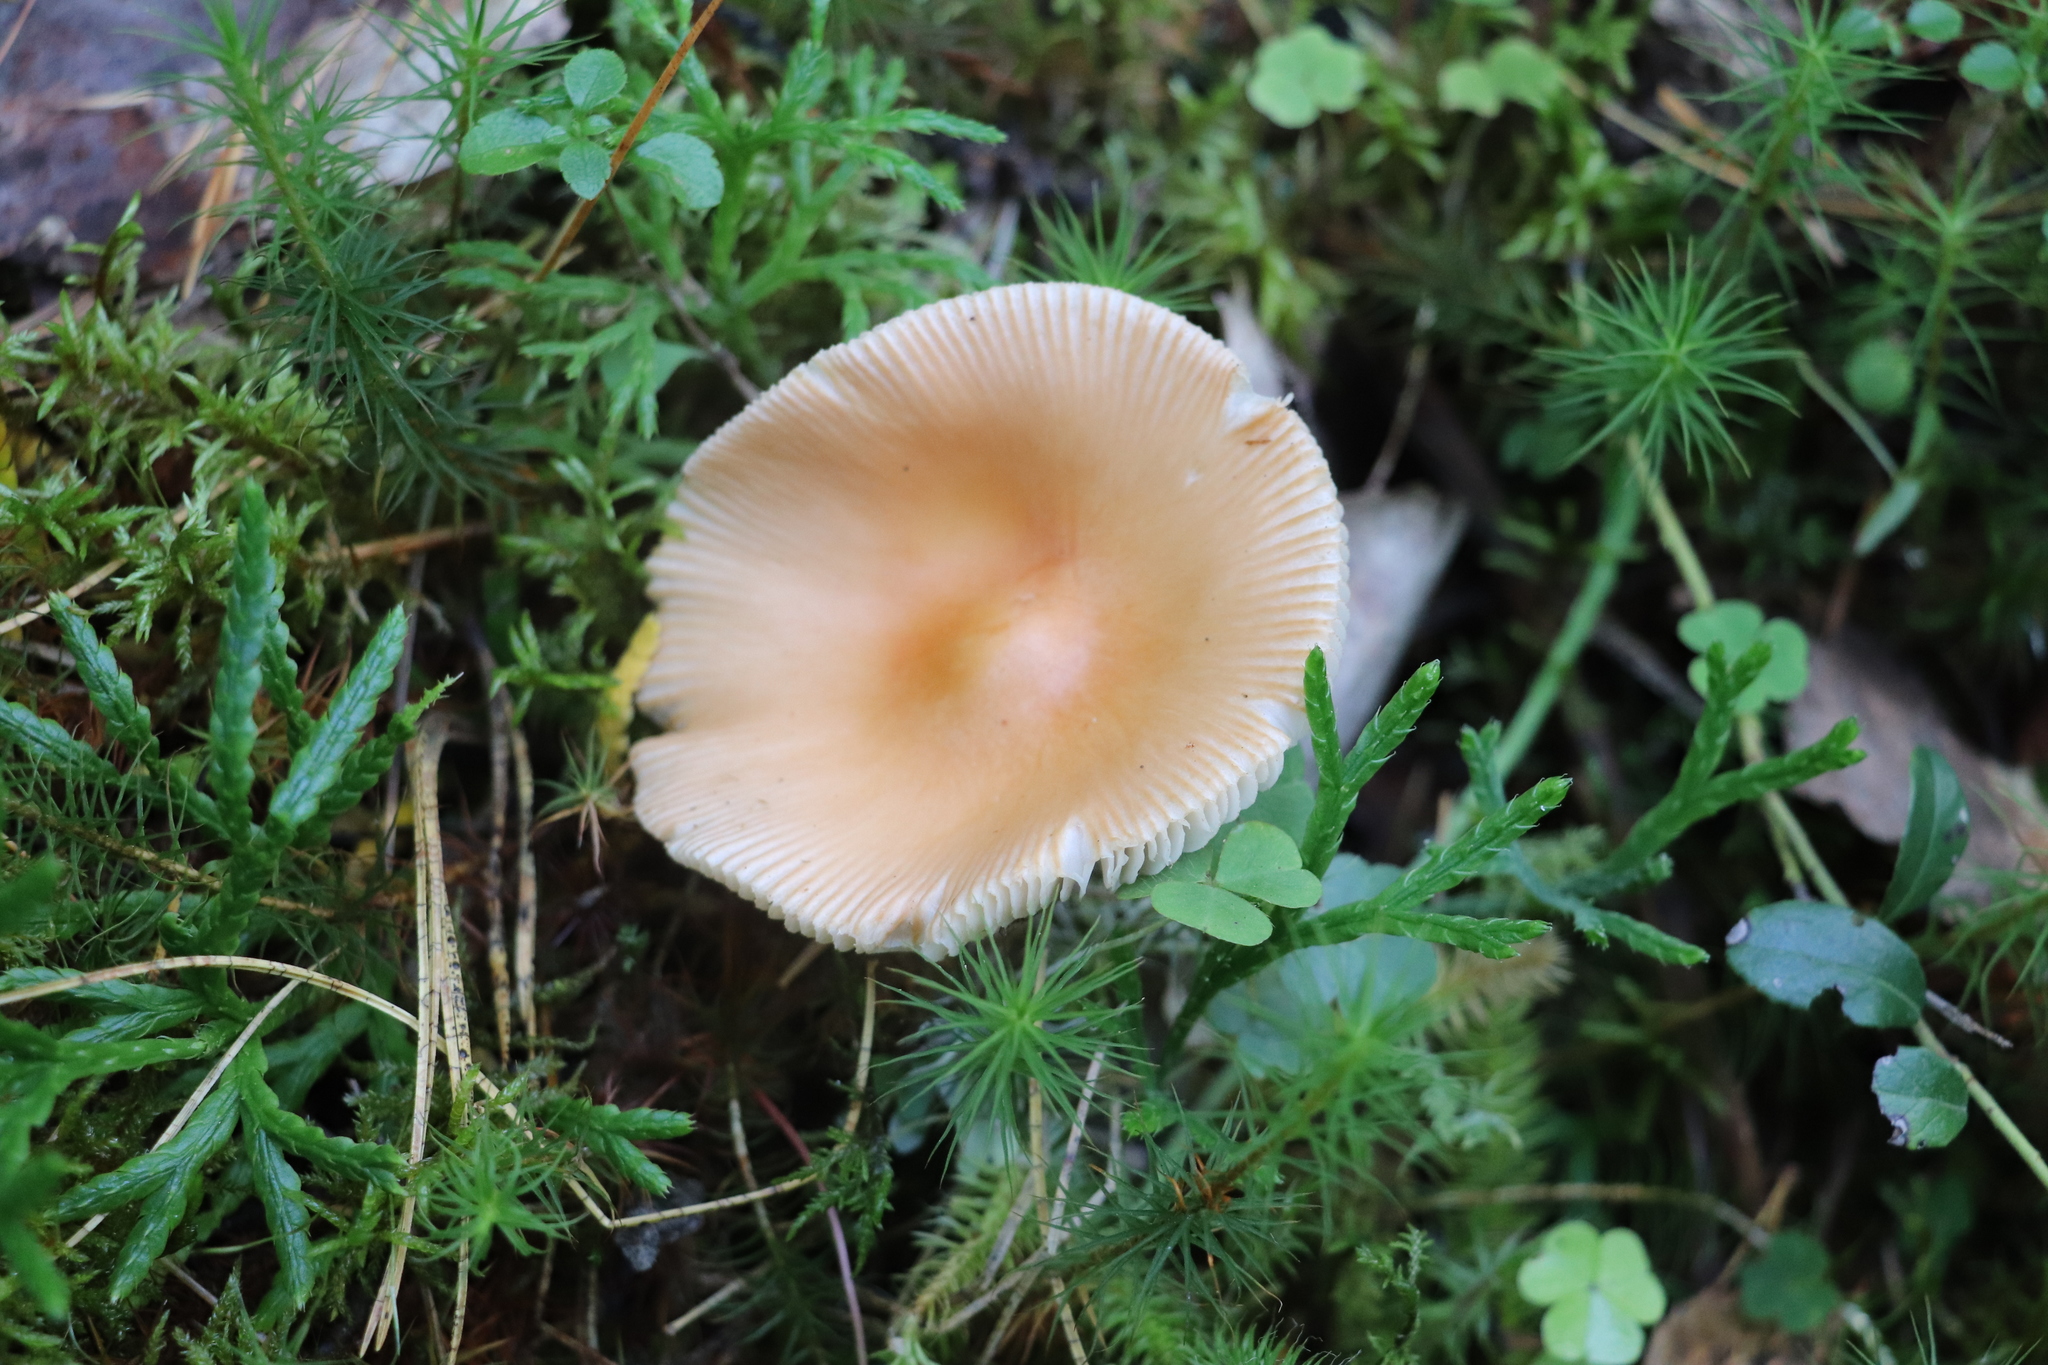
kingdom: Fungi
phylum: Basidiomycota
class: Agaricomycetes
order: Agaricales
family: Amanitaceae
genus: Amanita
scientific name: Amanita crocea
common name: Orange grisette
